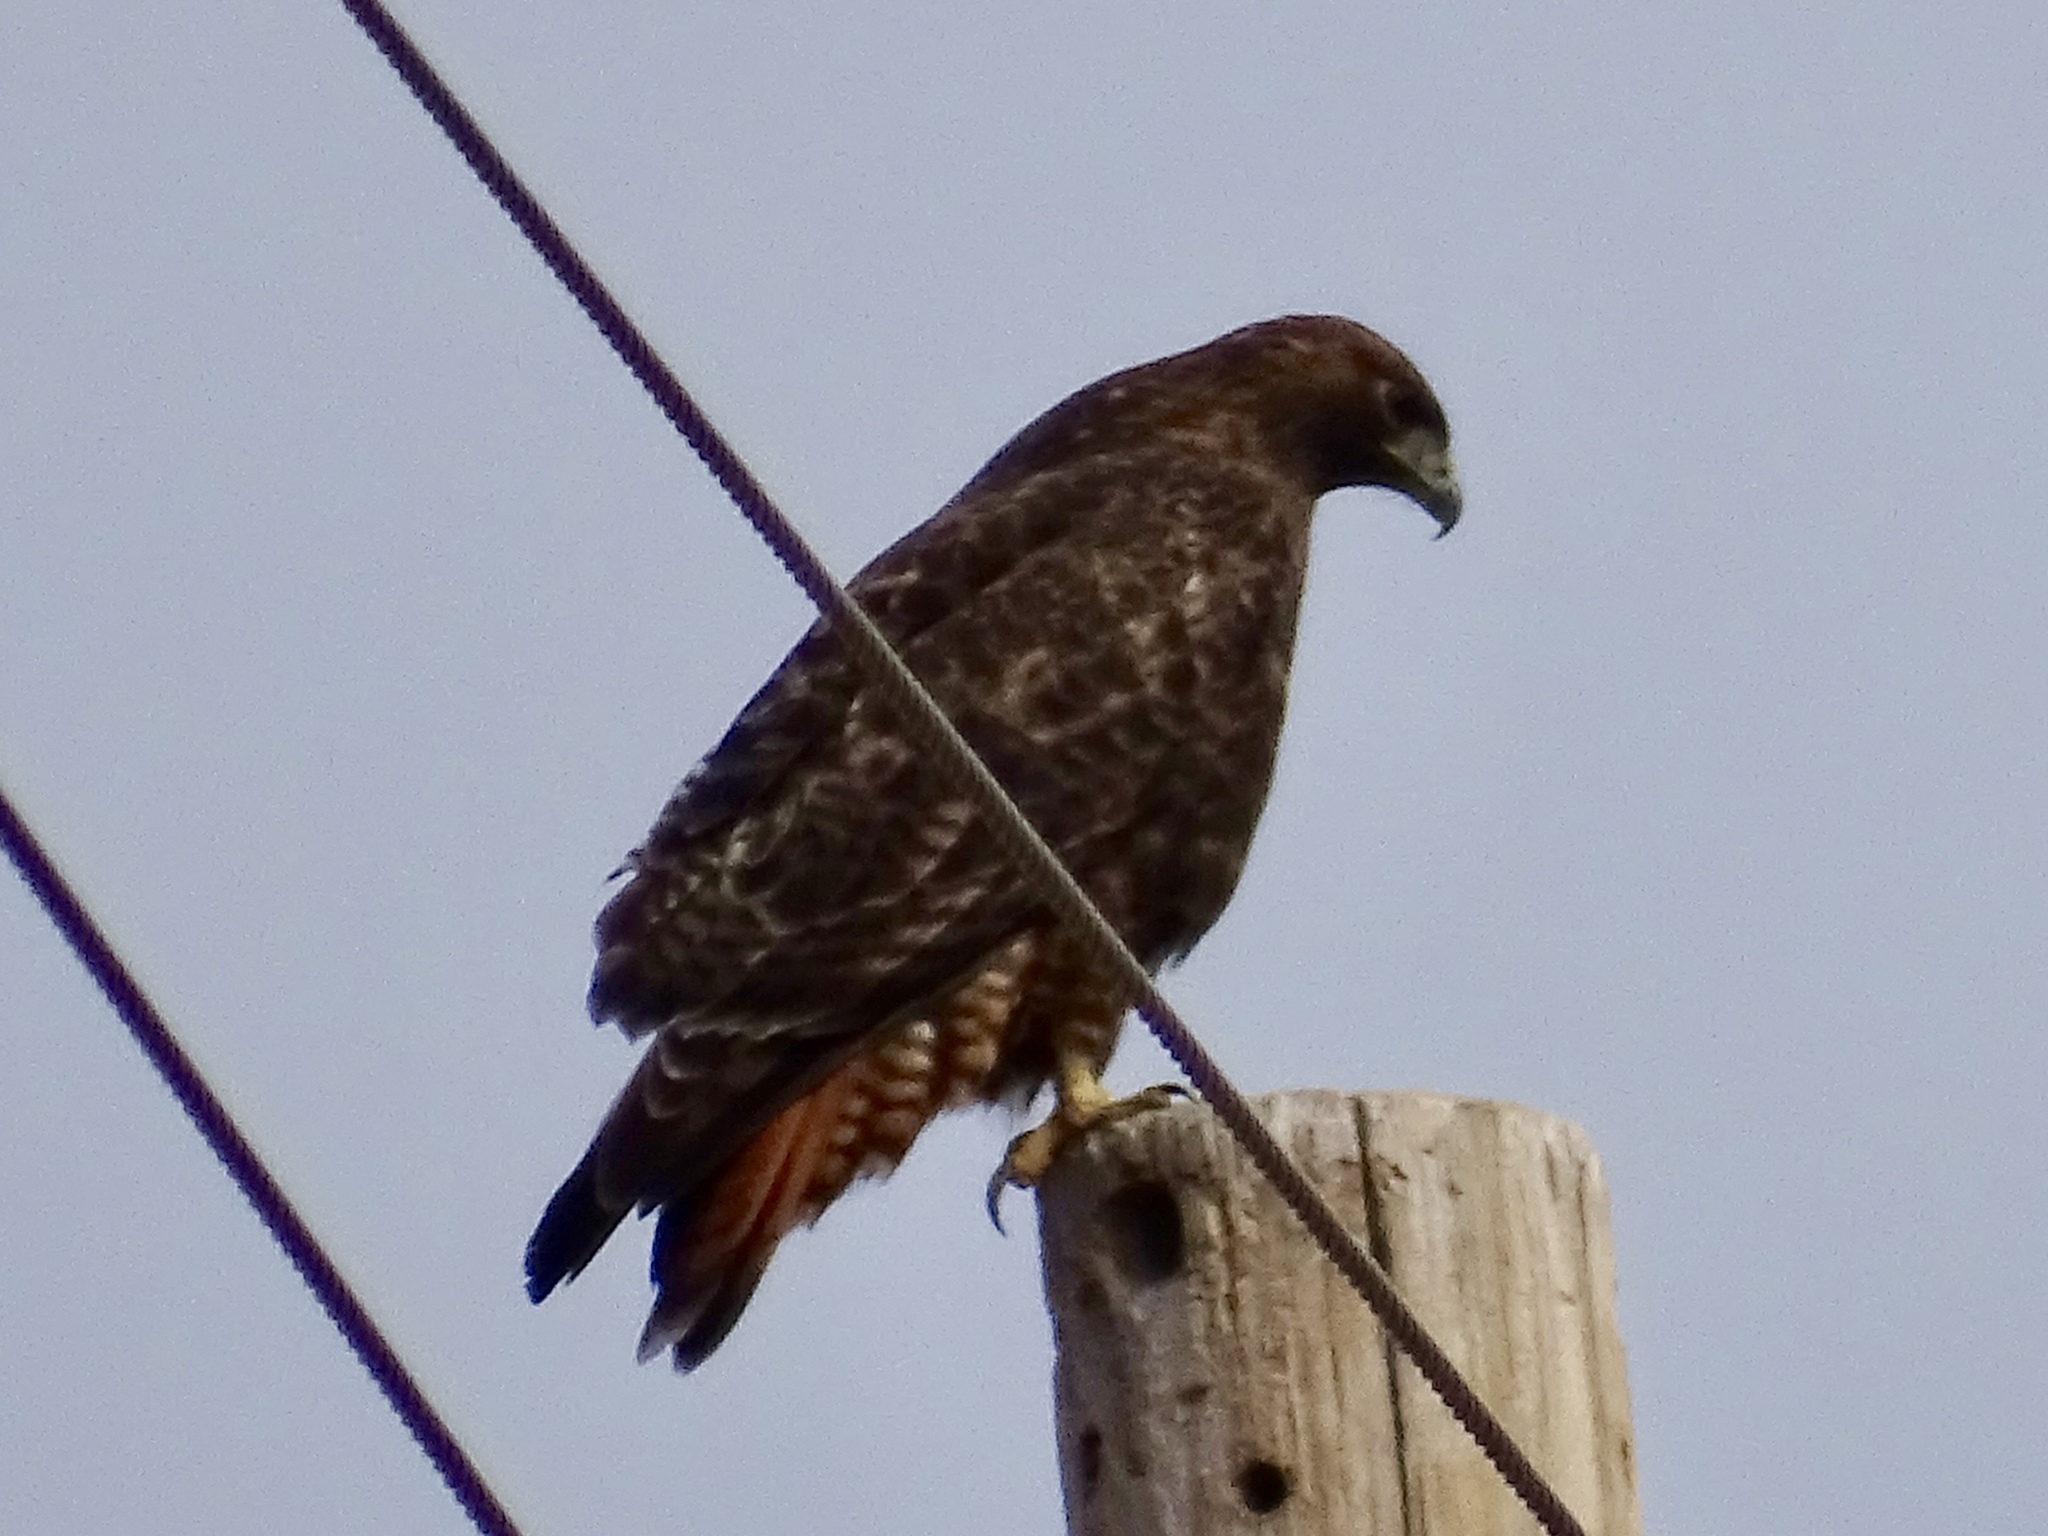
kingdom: Animalia
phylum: Chordata
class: Aves
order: Accipitriformes
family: Accipitridae
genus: Buteo
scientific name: Buteo jamaicensis
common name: Red-tailed hawk
